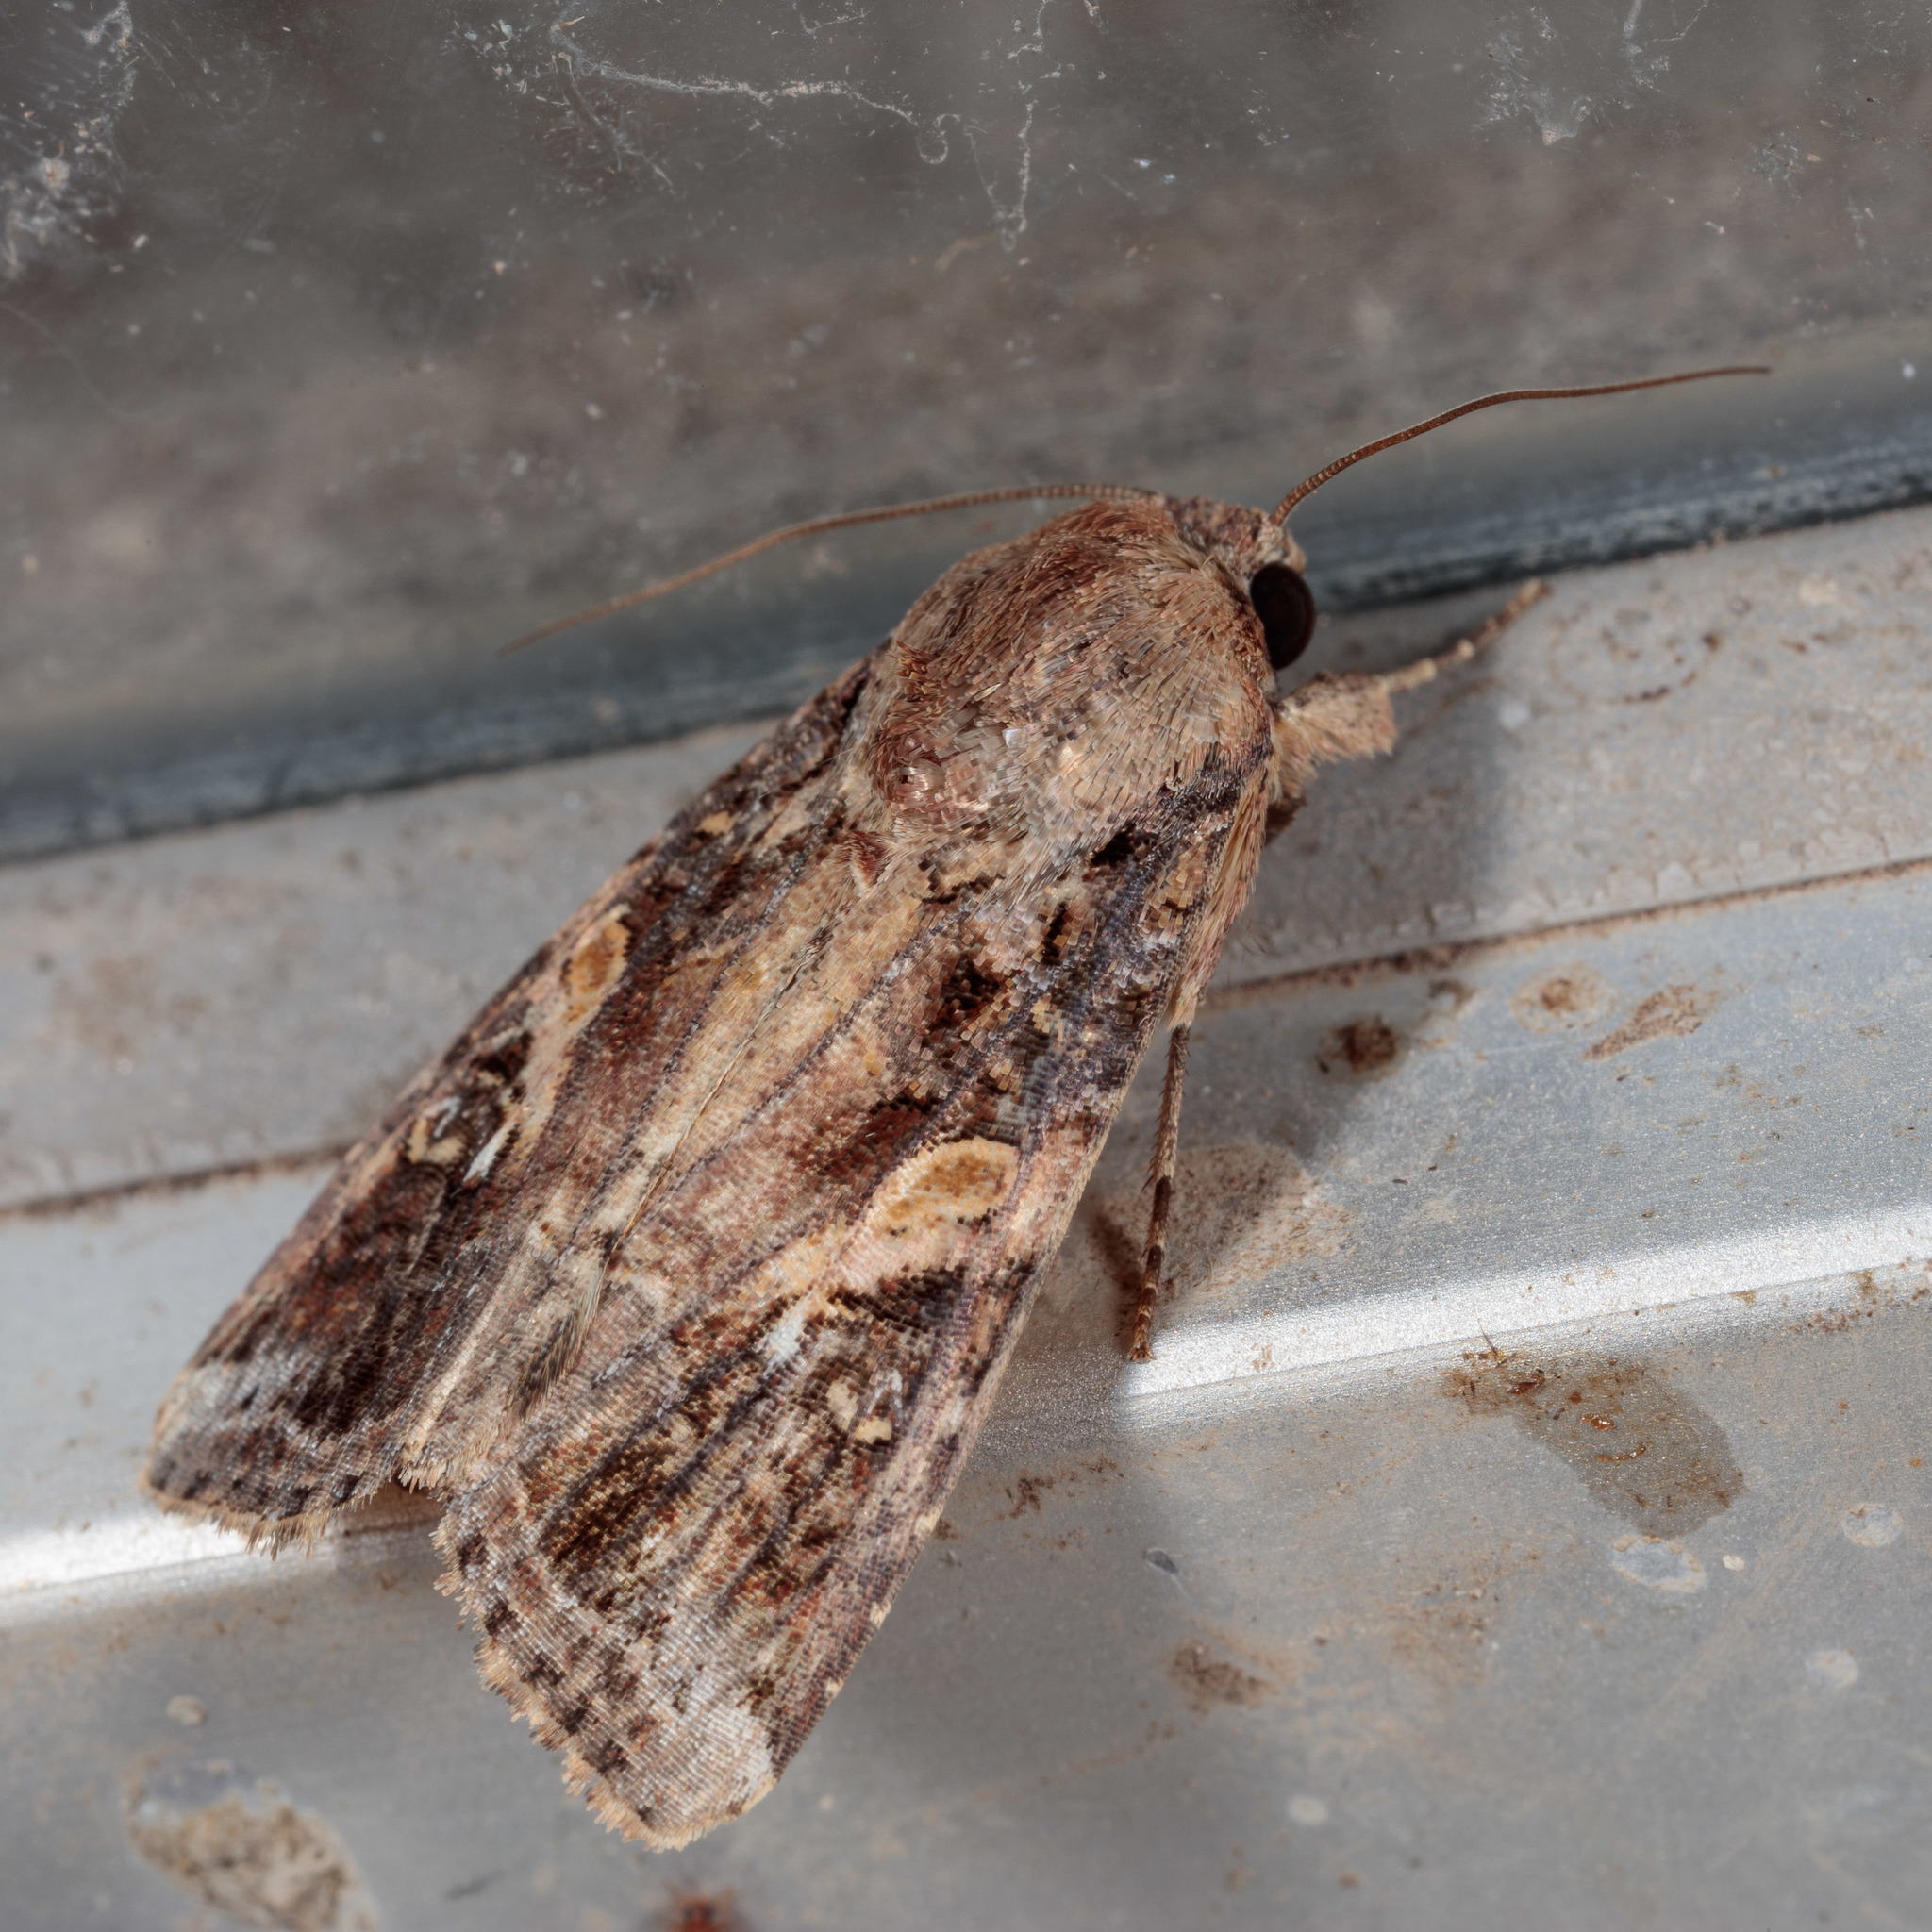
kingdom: Animalia
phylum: Arthropoda
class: Insecta
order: Lepidoptera
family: Noctuidae
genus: Spodoptera
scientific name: Spodoptera frugiperda
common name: Fall armyworm
